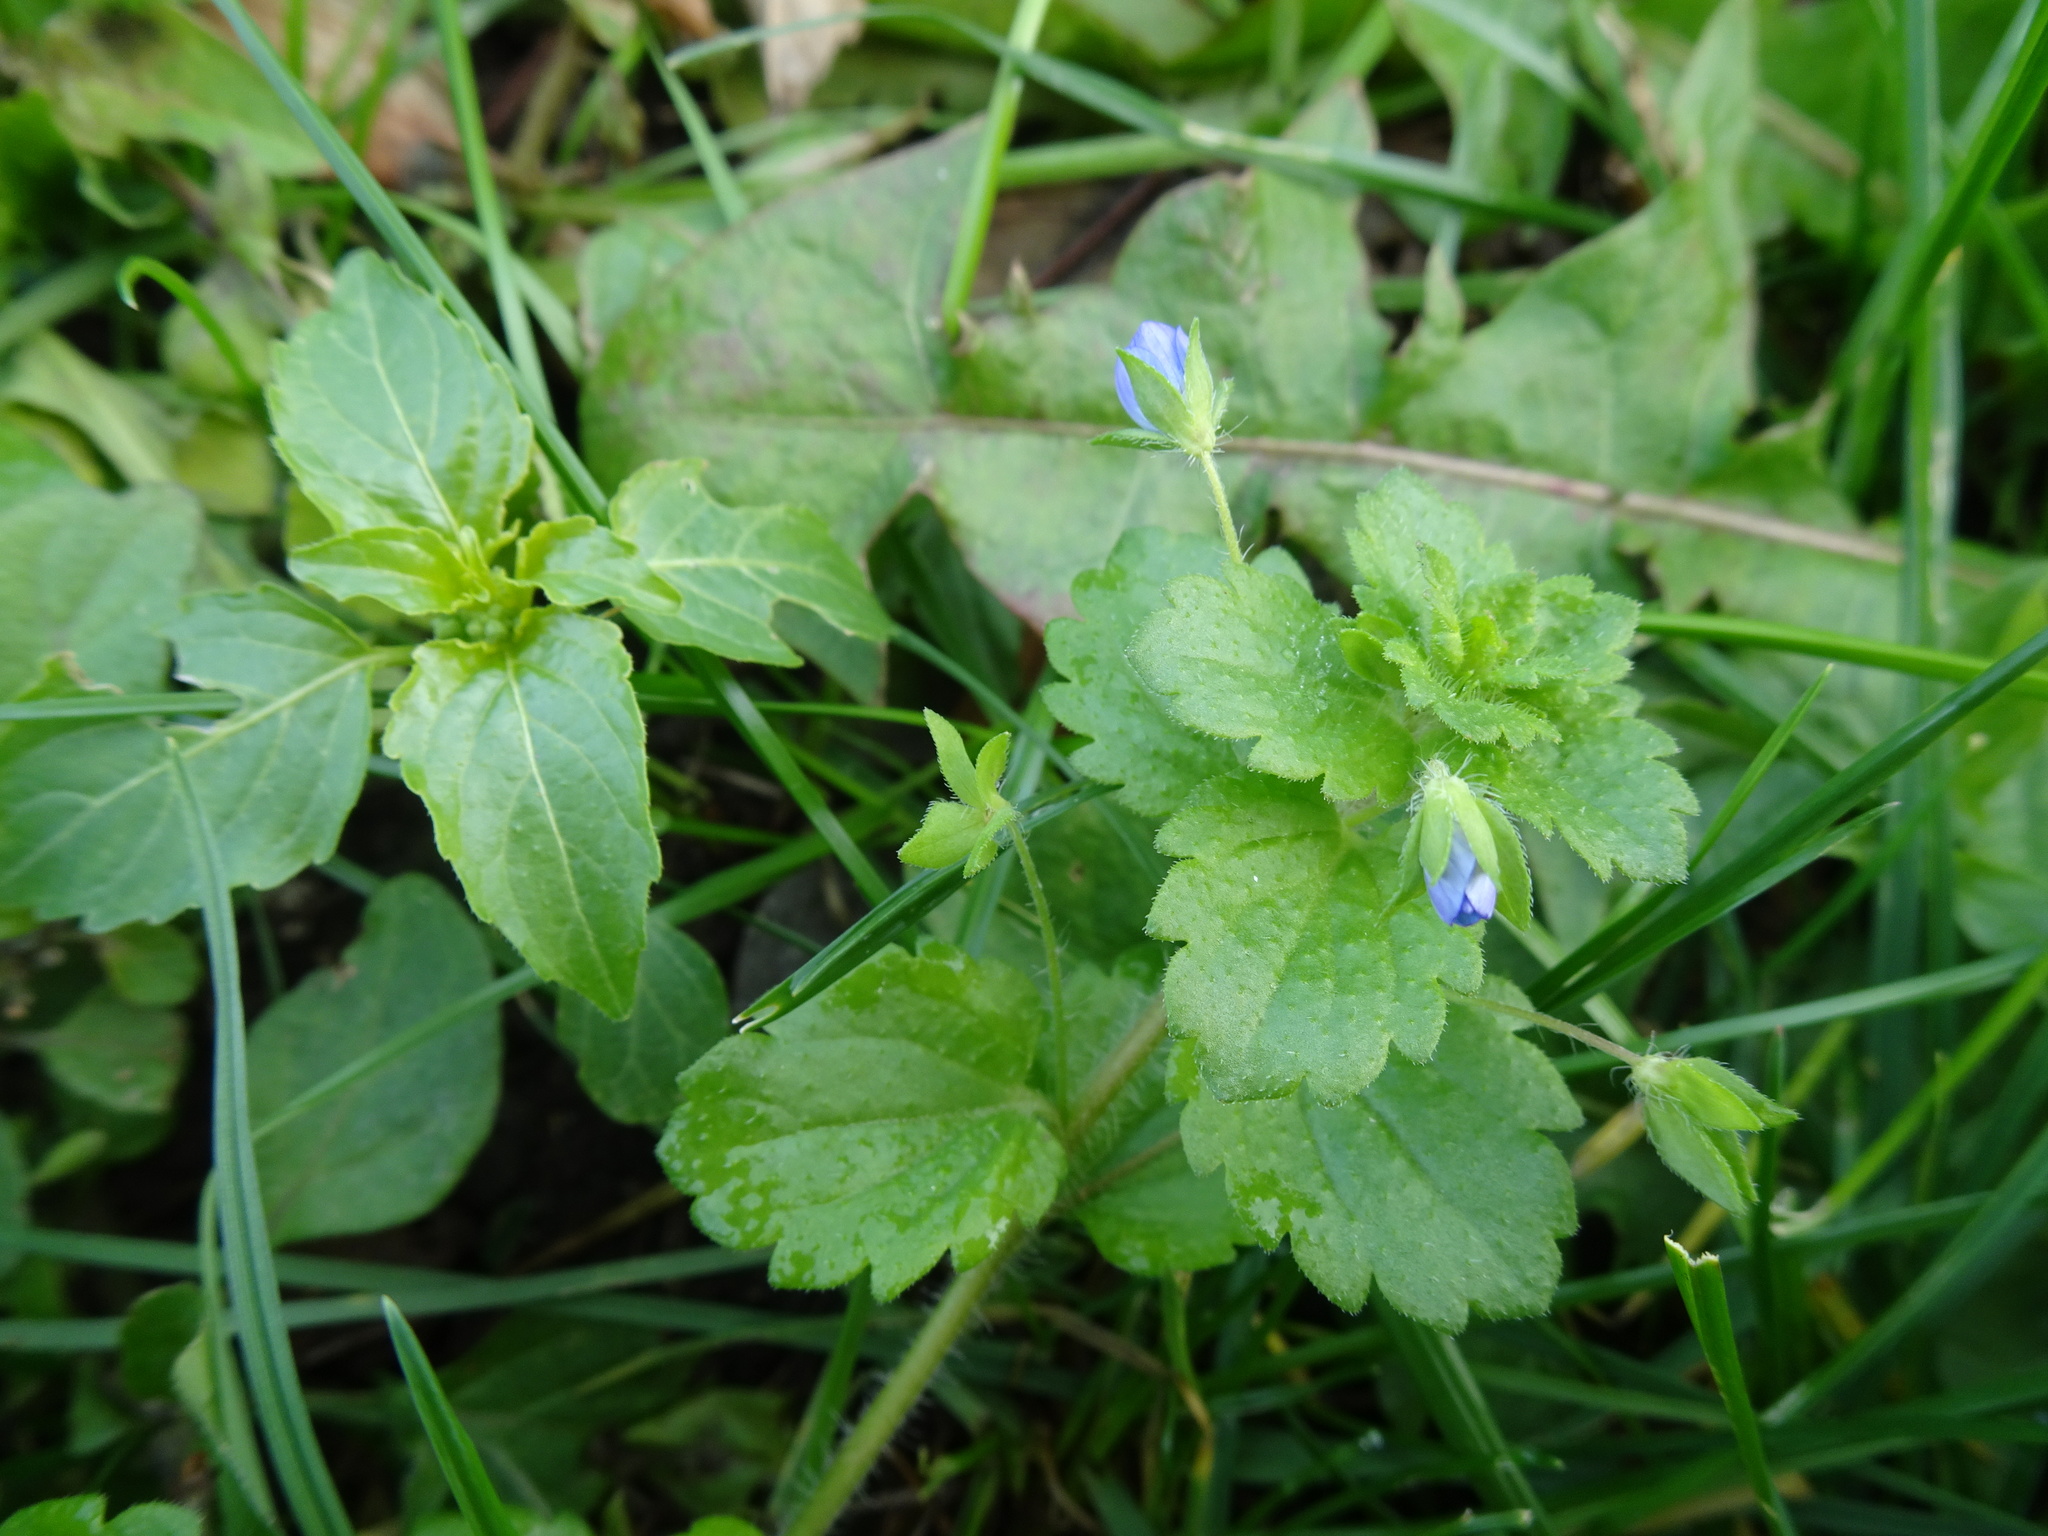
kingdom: Plantae
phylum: Tracheophyta
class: Magnoliopsida
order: Lamiales
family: Plantaginaceae
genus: Veronica
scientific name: Veronica persica
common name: Common field-speedwell
